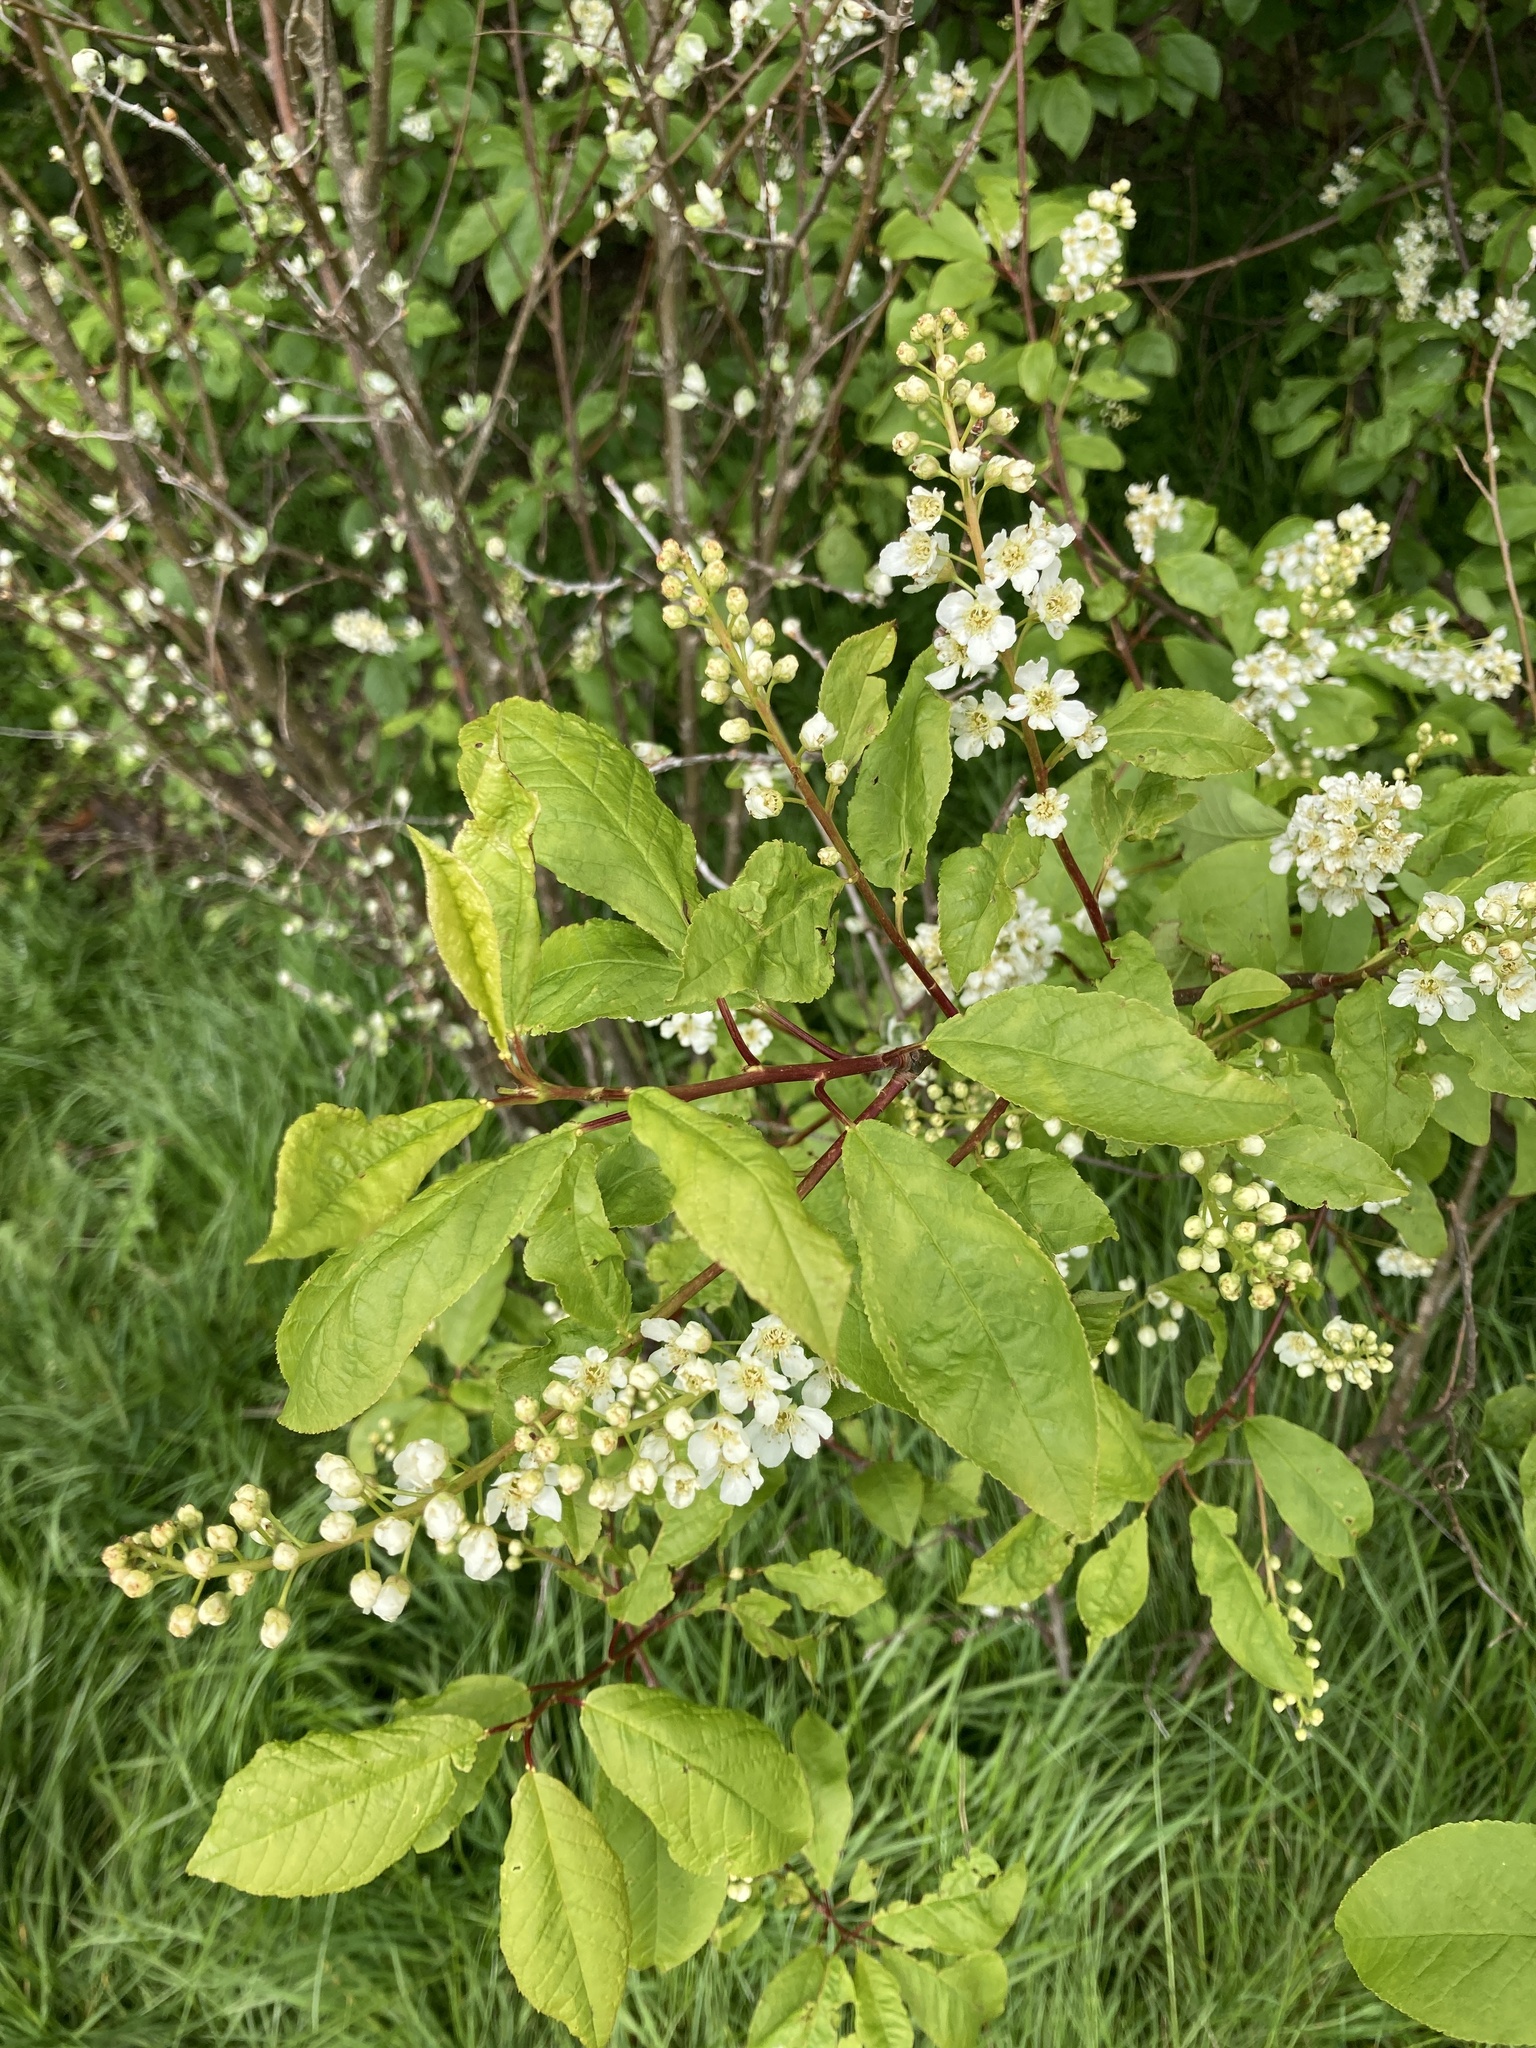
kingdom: Plantae
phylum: Tracheophyta
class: Magnoliopsida
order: Rosales
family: Rosaceae
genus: Prunus
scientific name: Prunus padus
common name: Bird cherry
